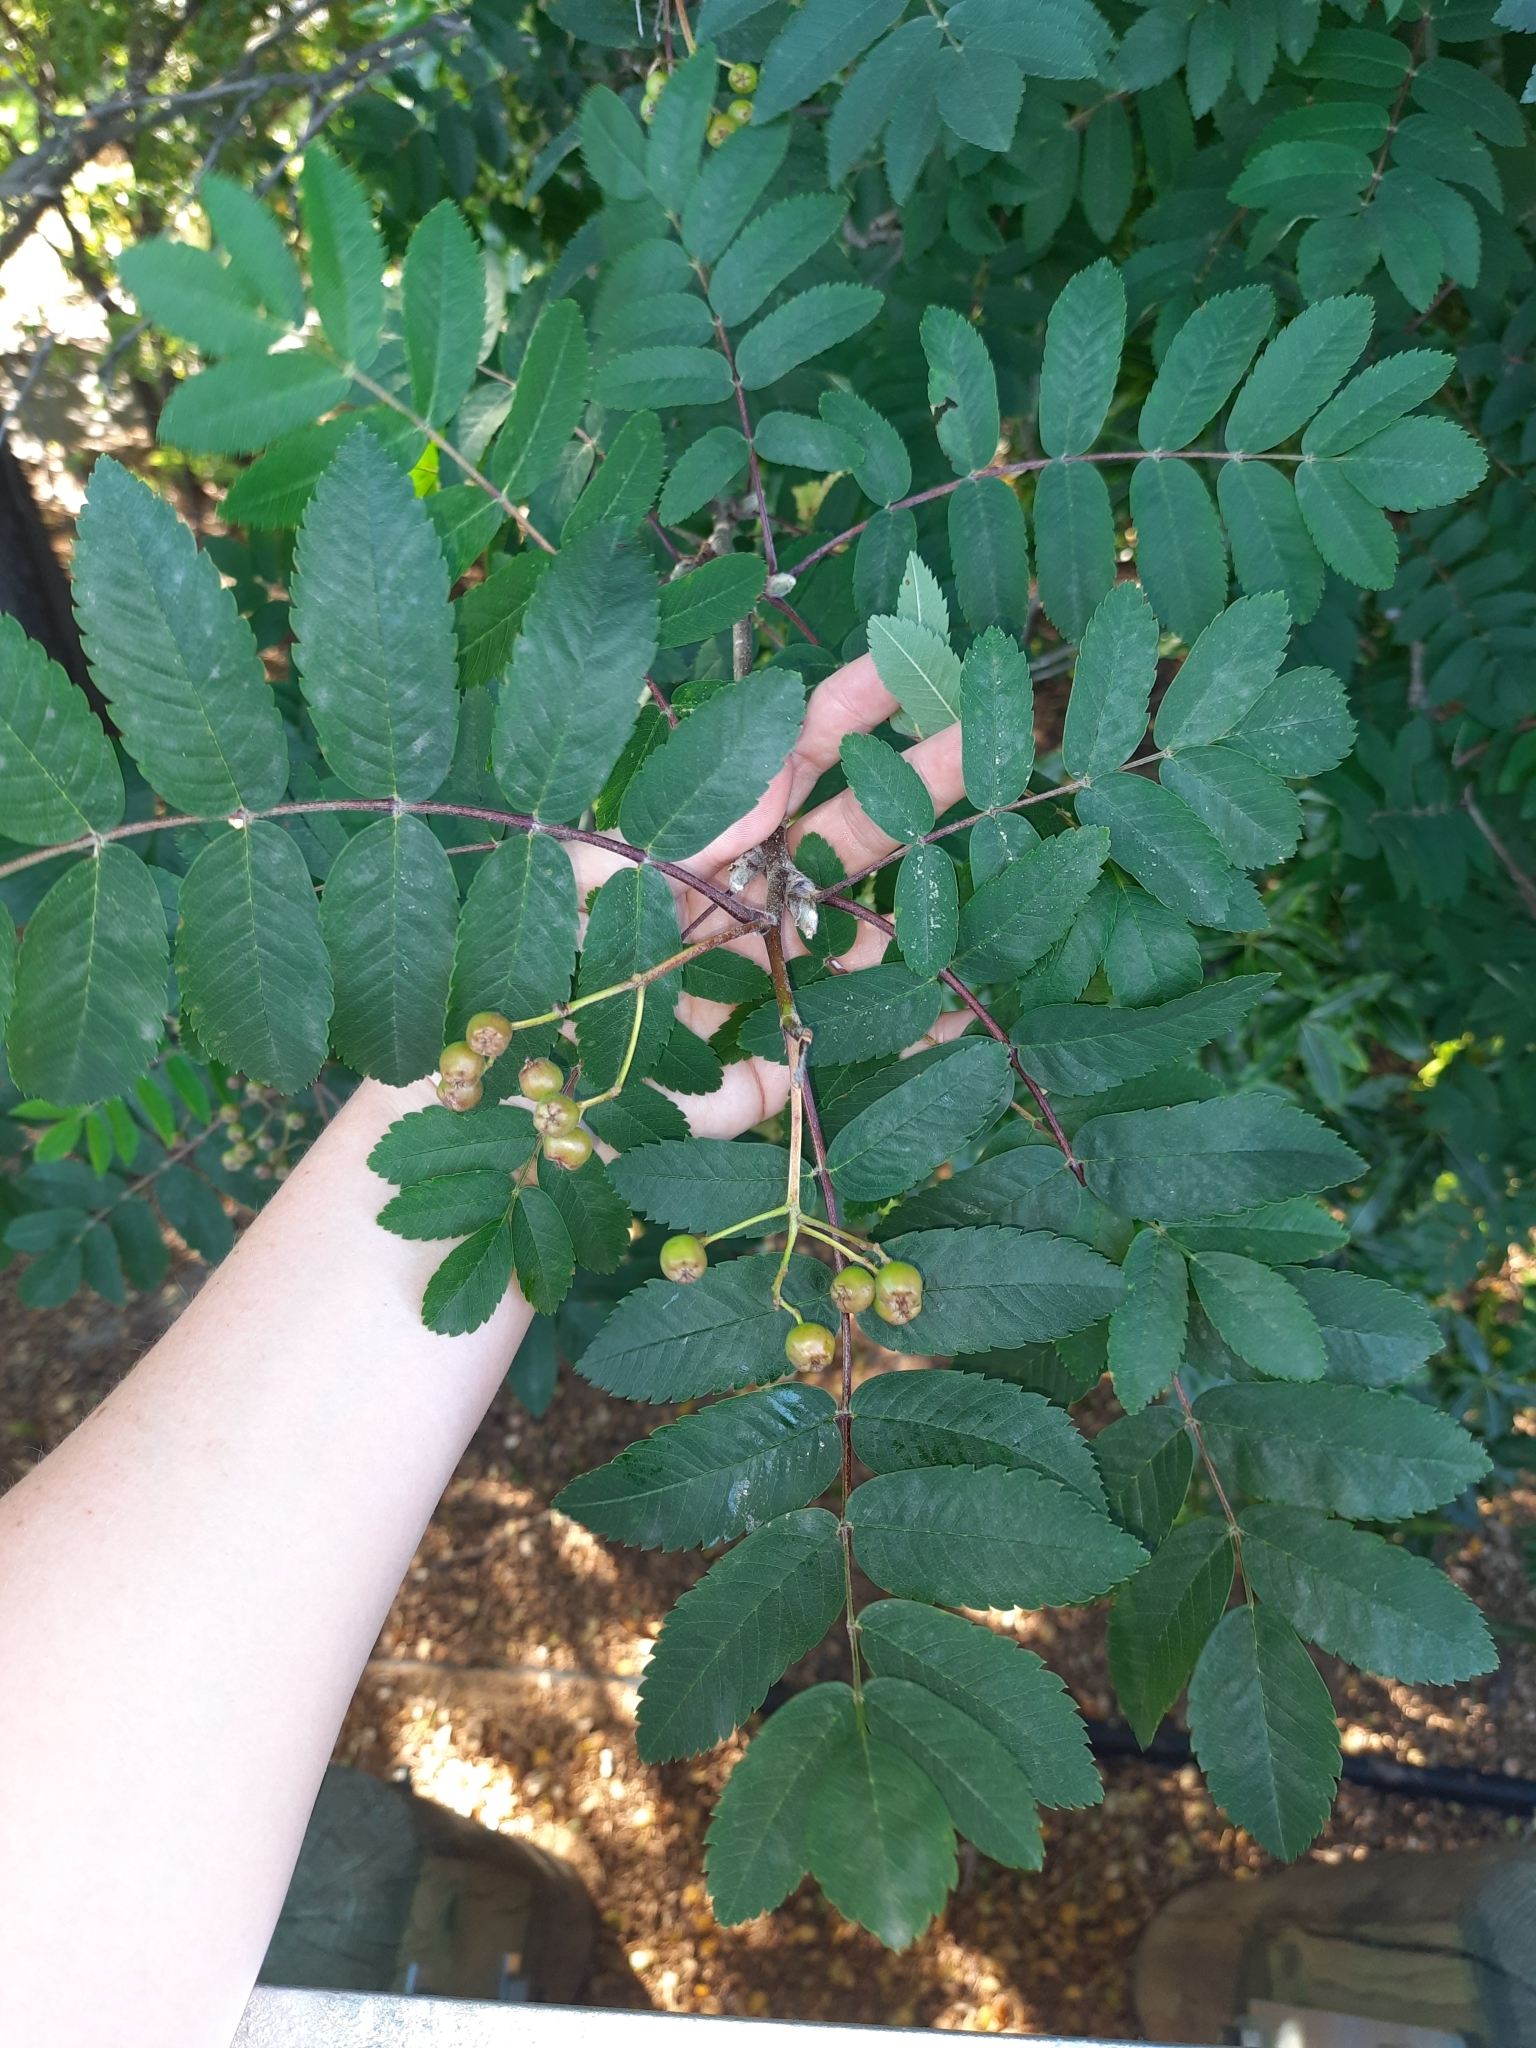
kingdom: Plantae
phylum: Tracheophyta
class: Magnoliopsida
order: Rosales
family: Rosaceae
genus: Sorbus
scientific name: Sorbus aucuparia
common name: Rowan
